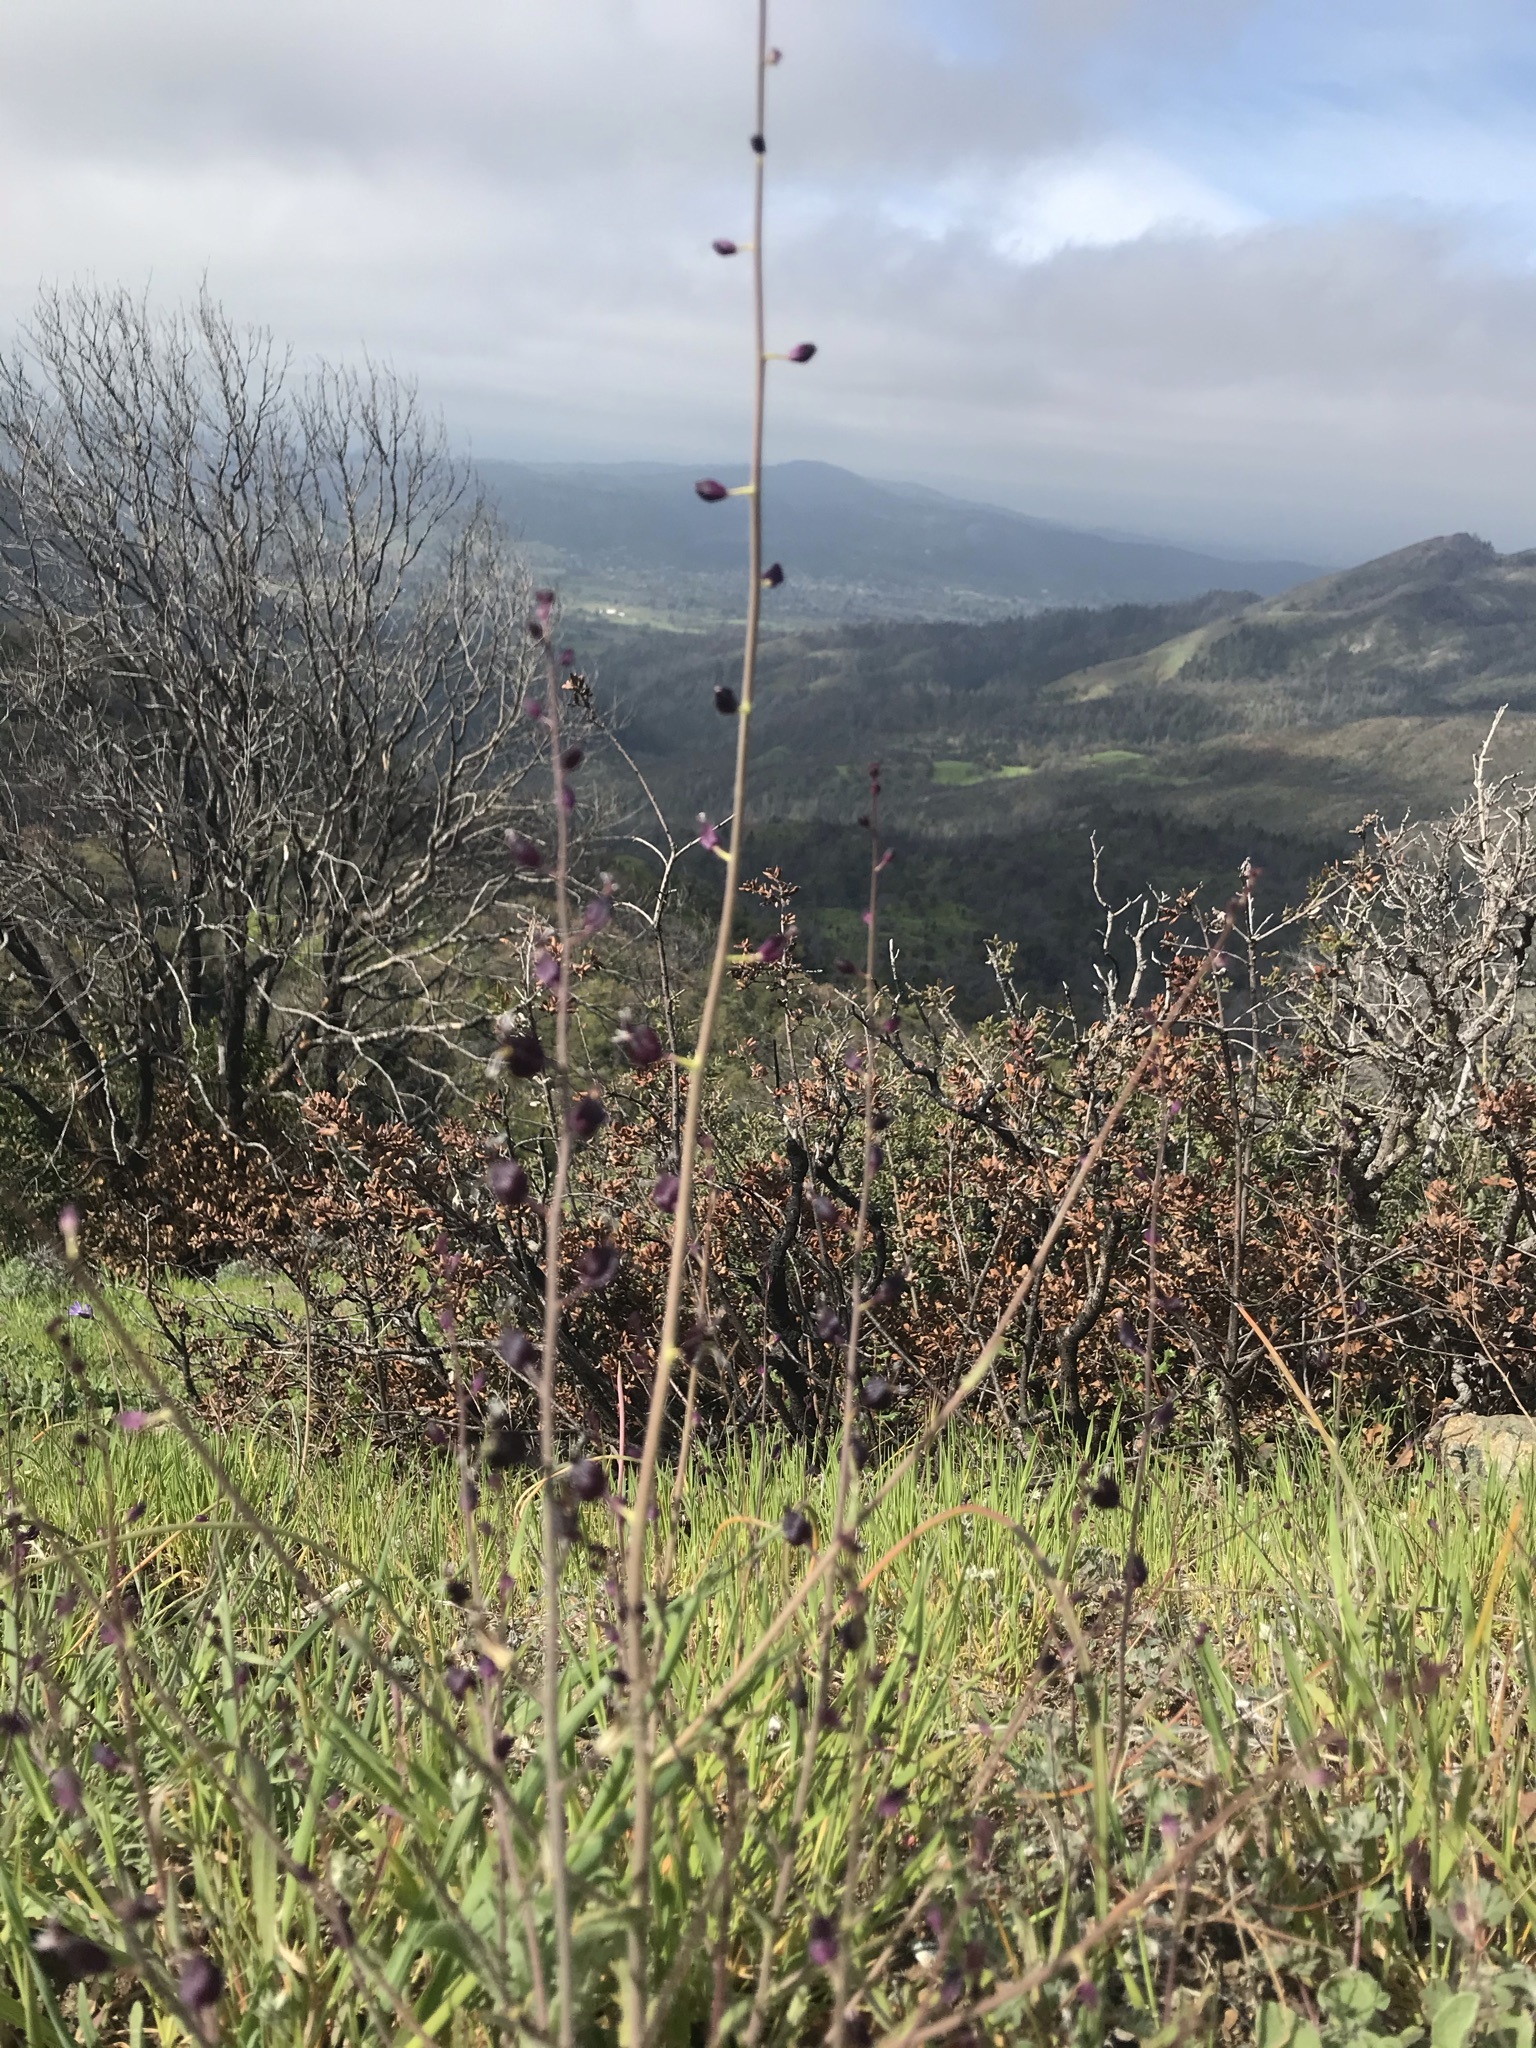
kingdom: Plantae
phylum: Tracheophyta
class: Magnoliopsida
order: Brassicales
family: Brassicaceae
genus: Streptanthus
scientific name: Streptanthus glandulosus
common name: Jewel-flower
